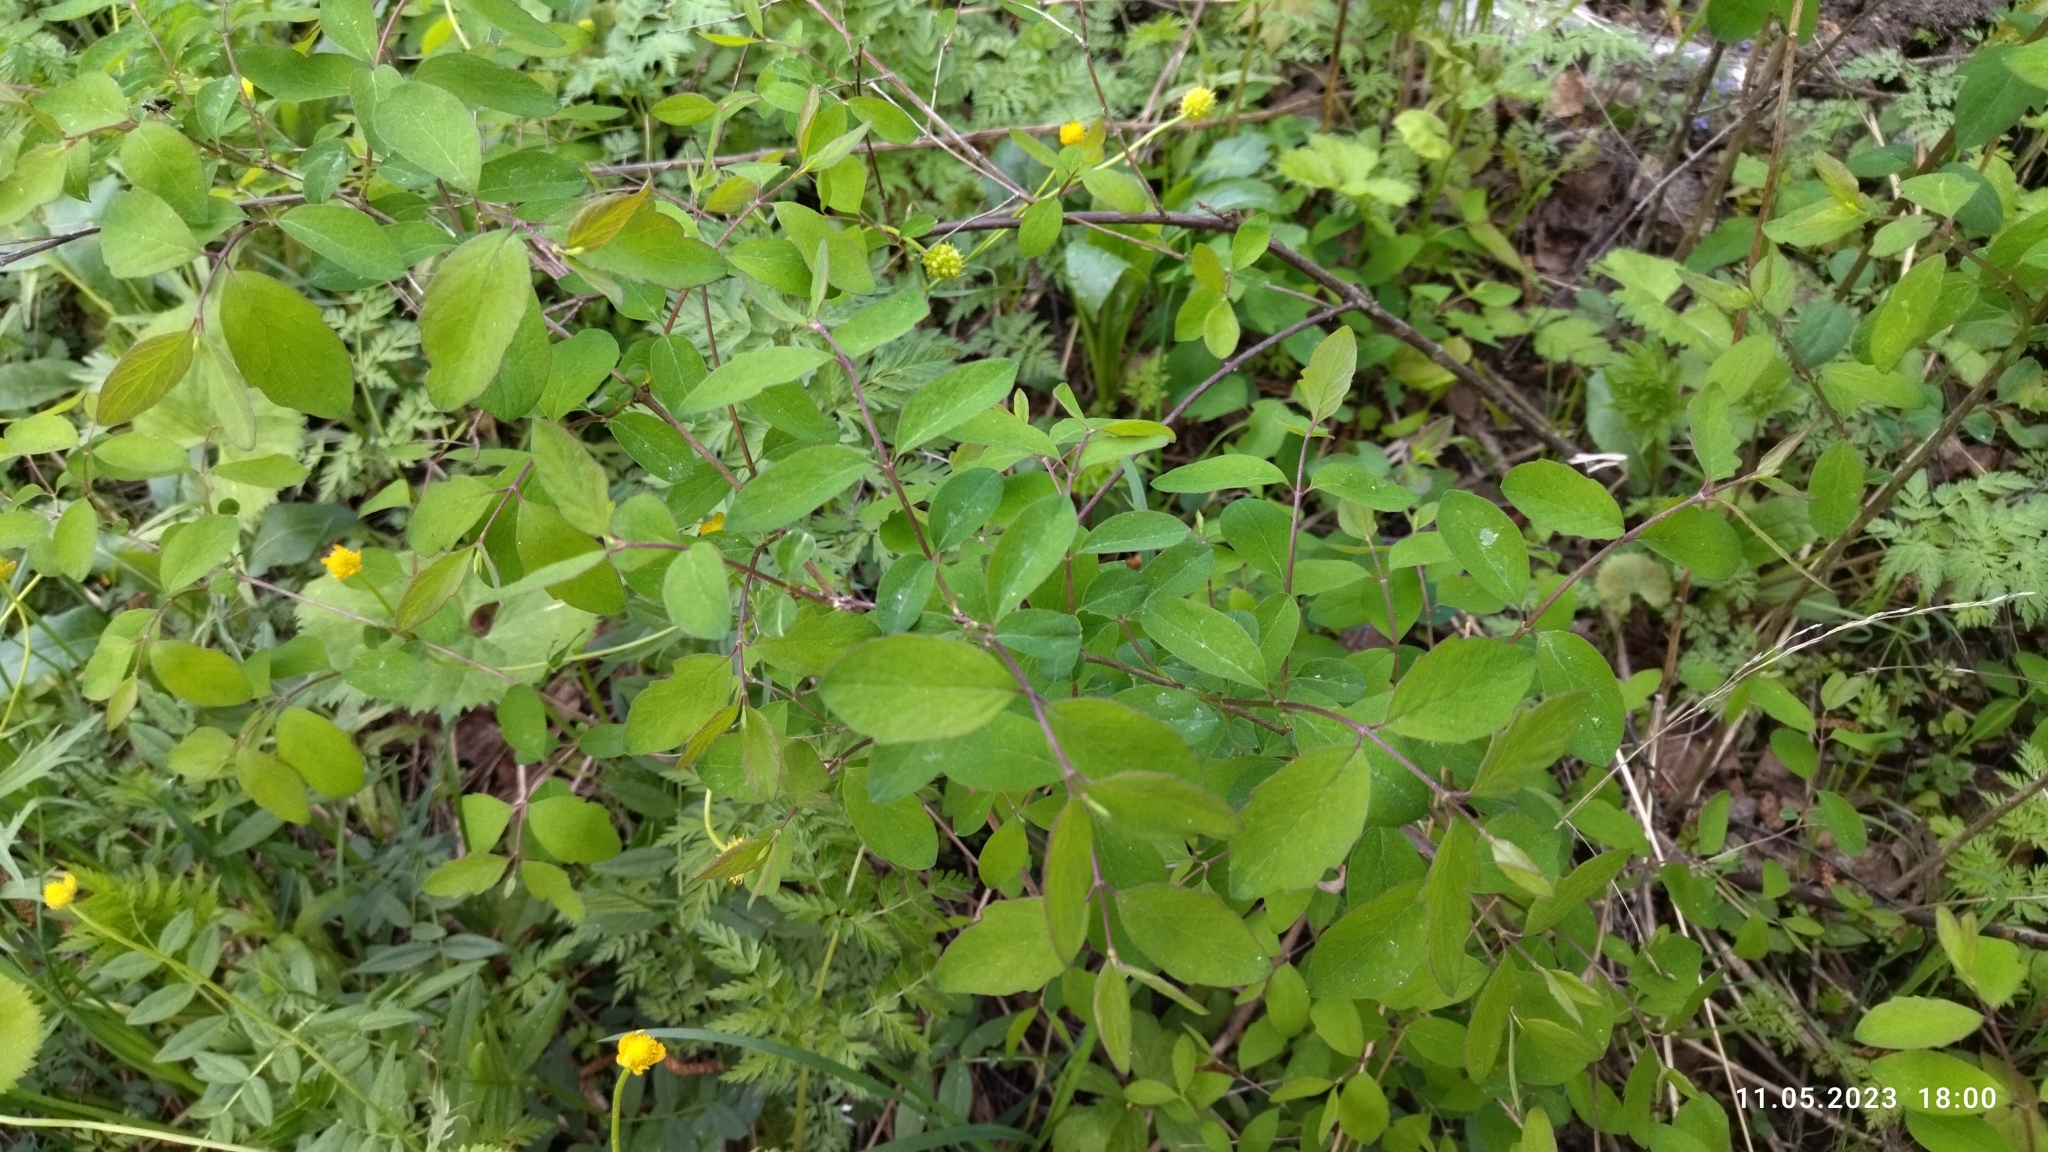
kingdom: Plantae
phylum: Tracheophyta
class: Magnoliopsida
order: Dipsacales
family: Caprifoliaceae
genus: Symphoricarpos
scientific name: Symphoricarpos albus
